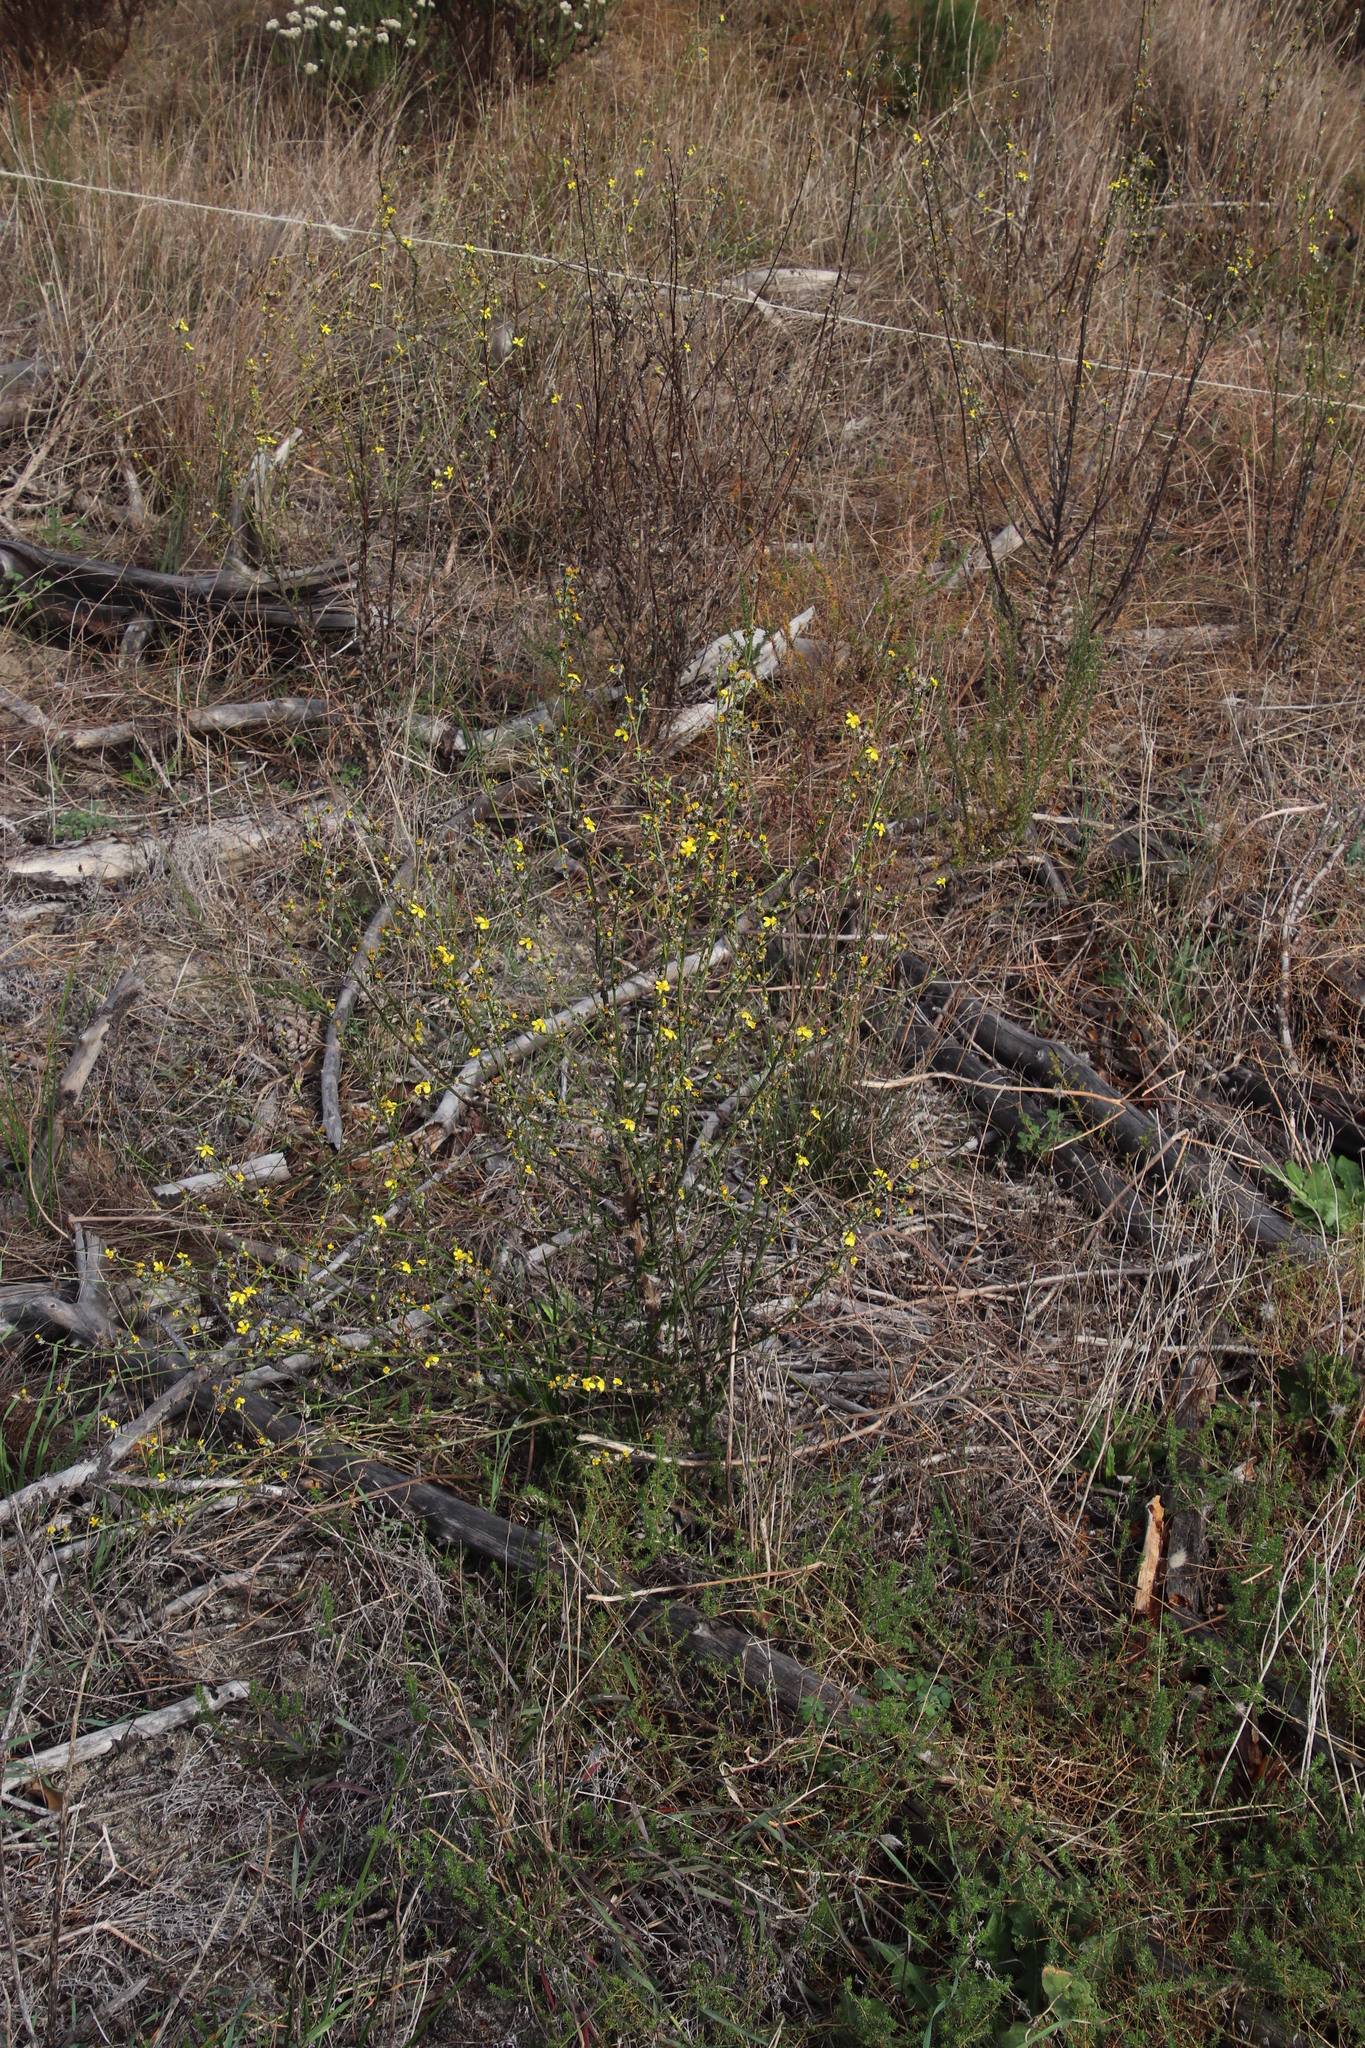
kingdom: Plantae
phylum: Tracheophyta
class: Magnoliopsida
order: Asterales
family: Asteraceae
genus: Senecio
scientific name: Senecio pubigerus
